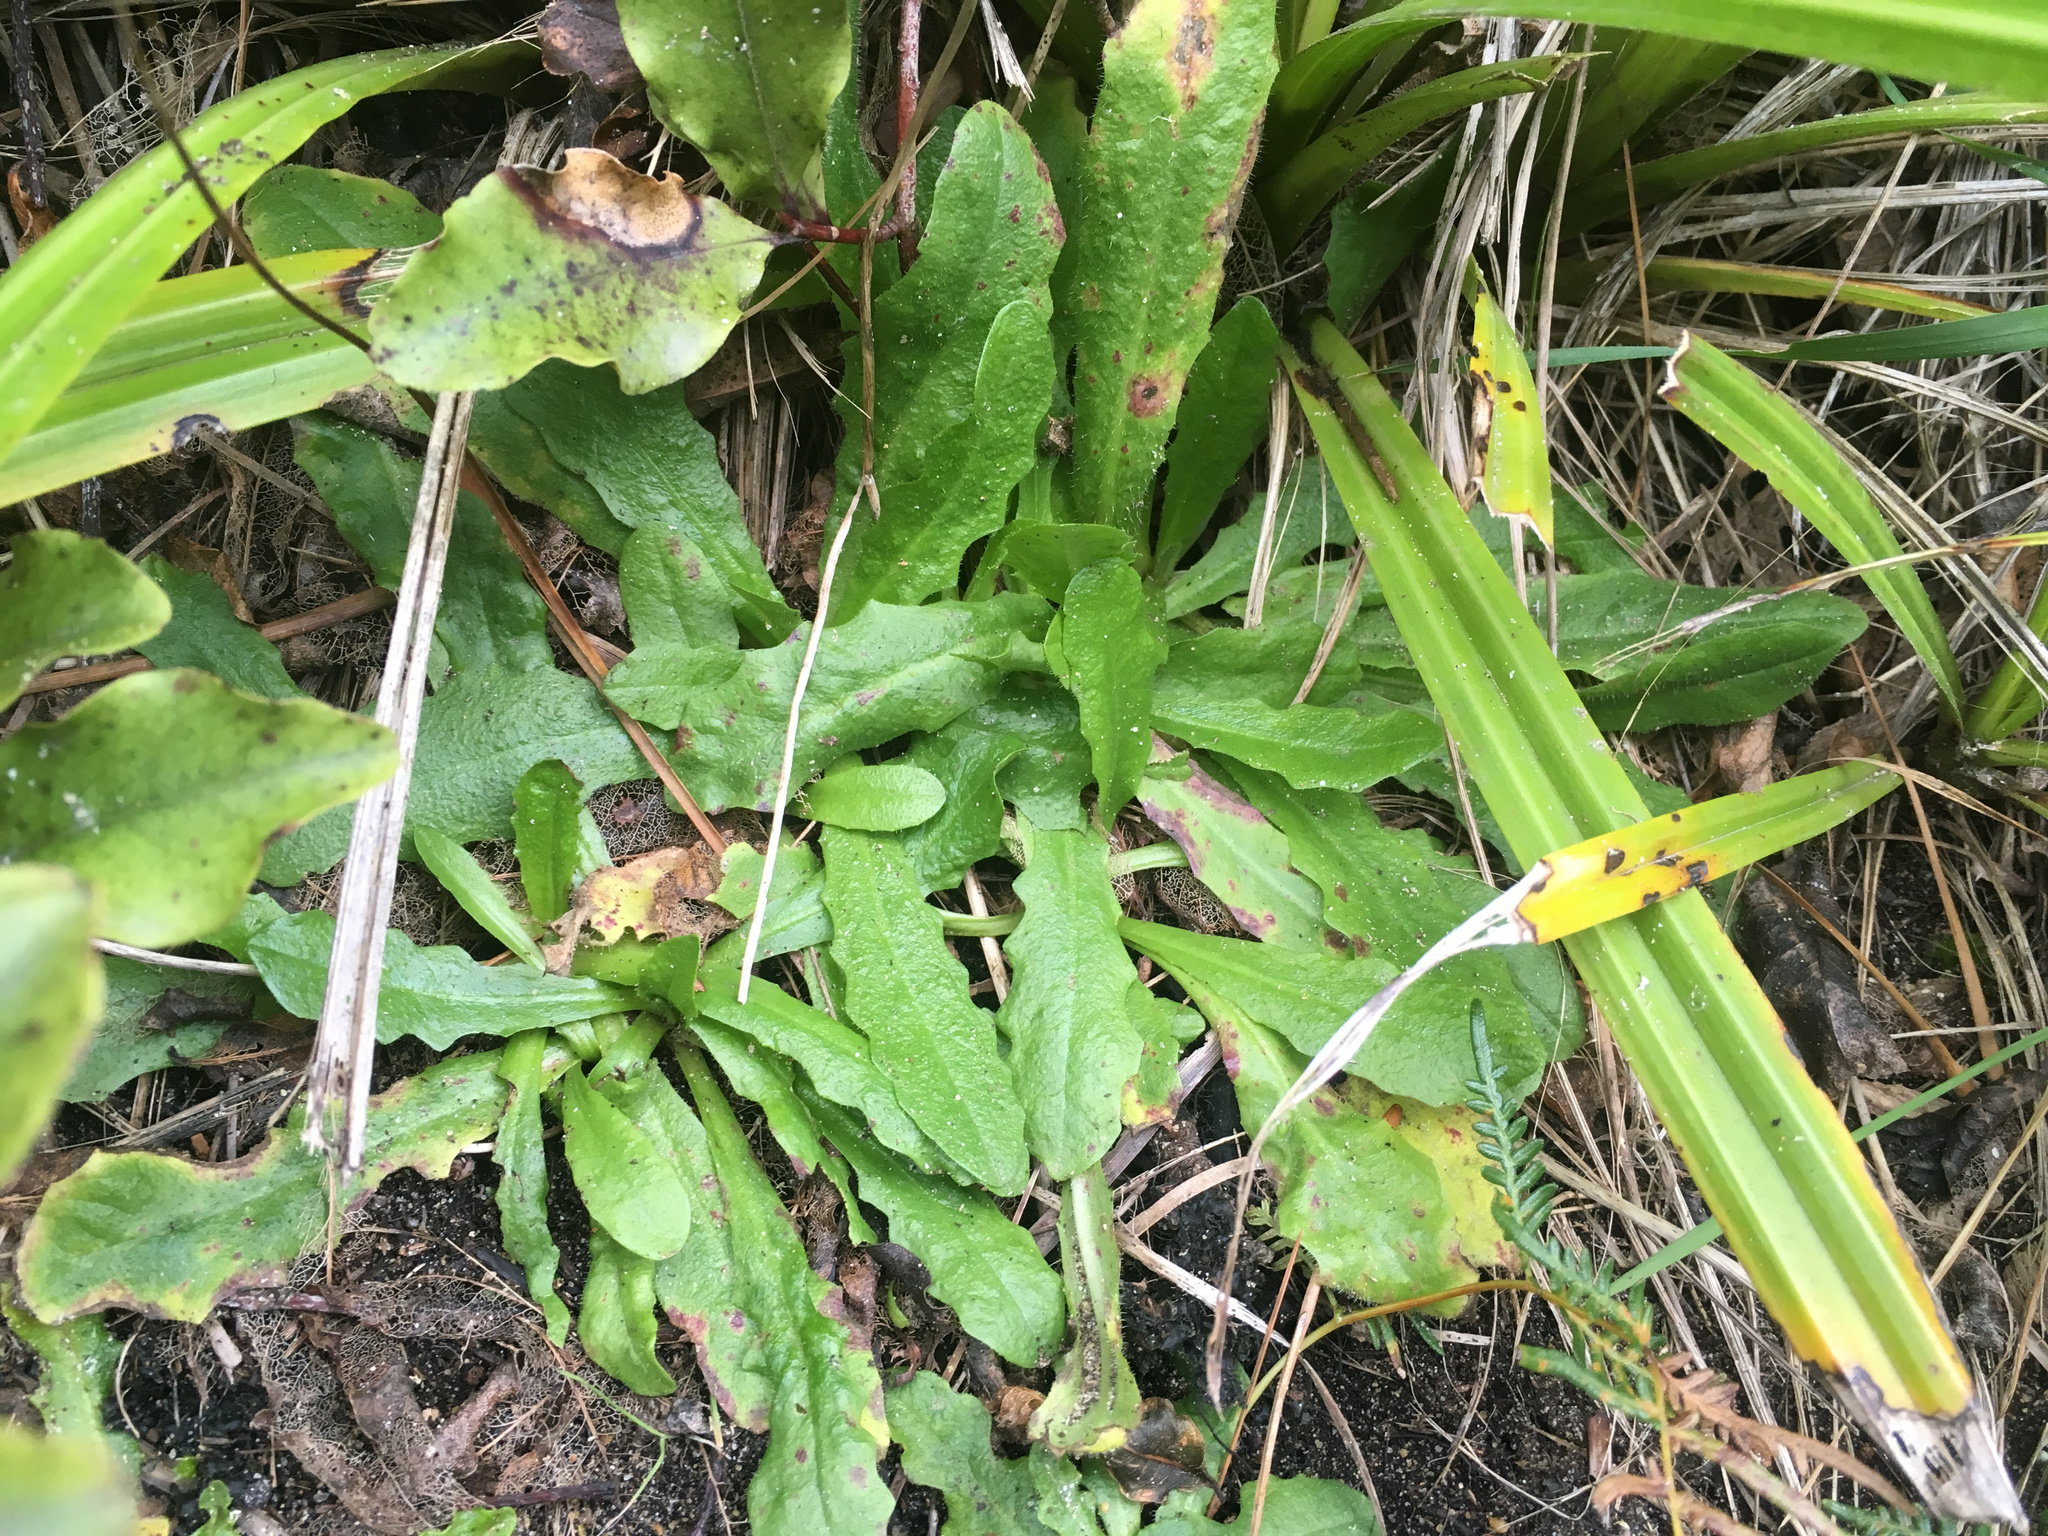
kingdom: Plantae
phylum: Tracheophyta
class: Magnoliopsida
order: Asterales
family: Asteraceae
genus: Hypochaeris
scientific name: Hypochaeris radicata
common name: Flatweed
